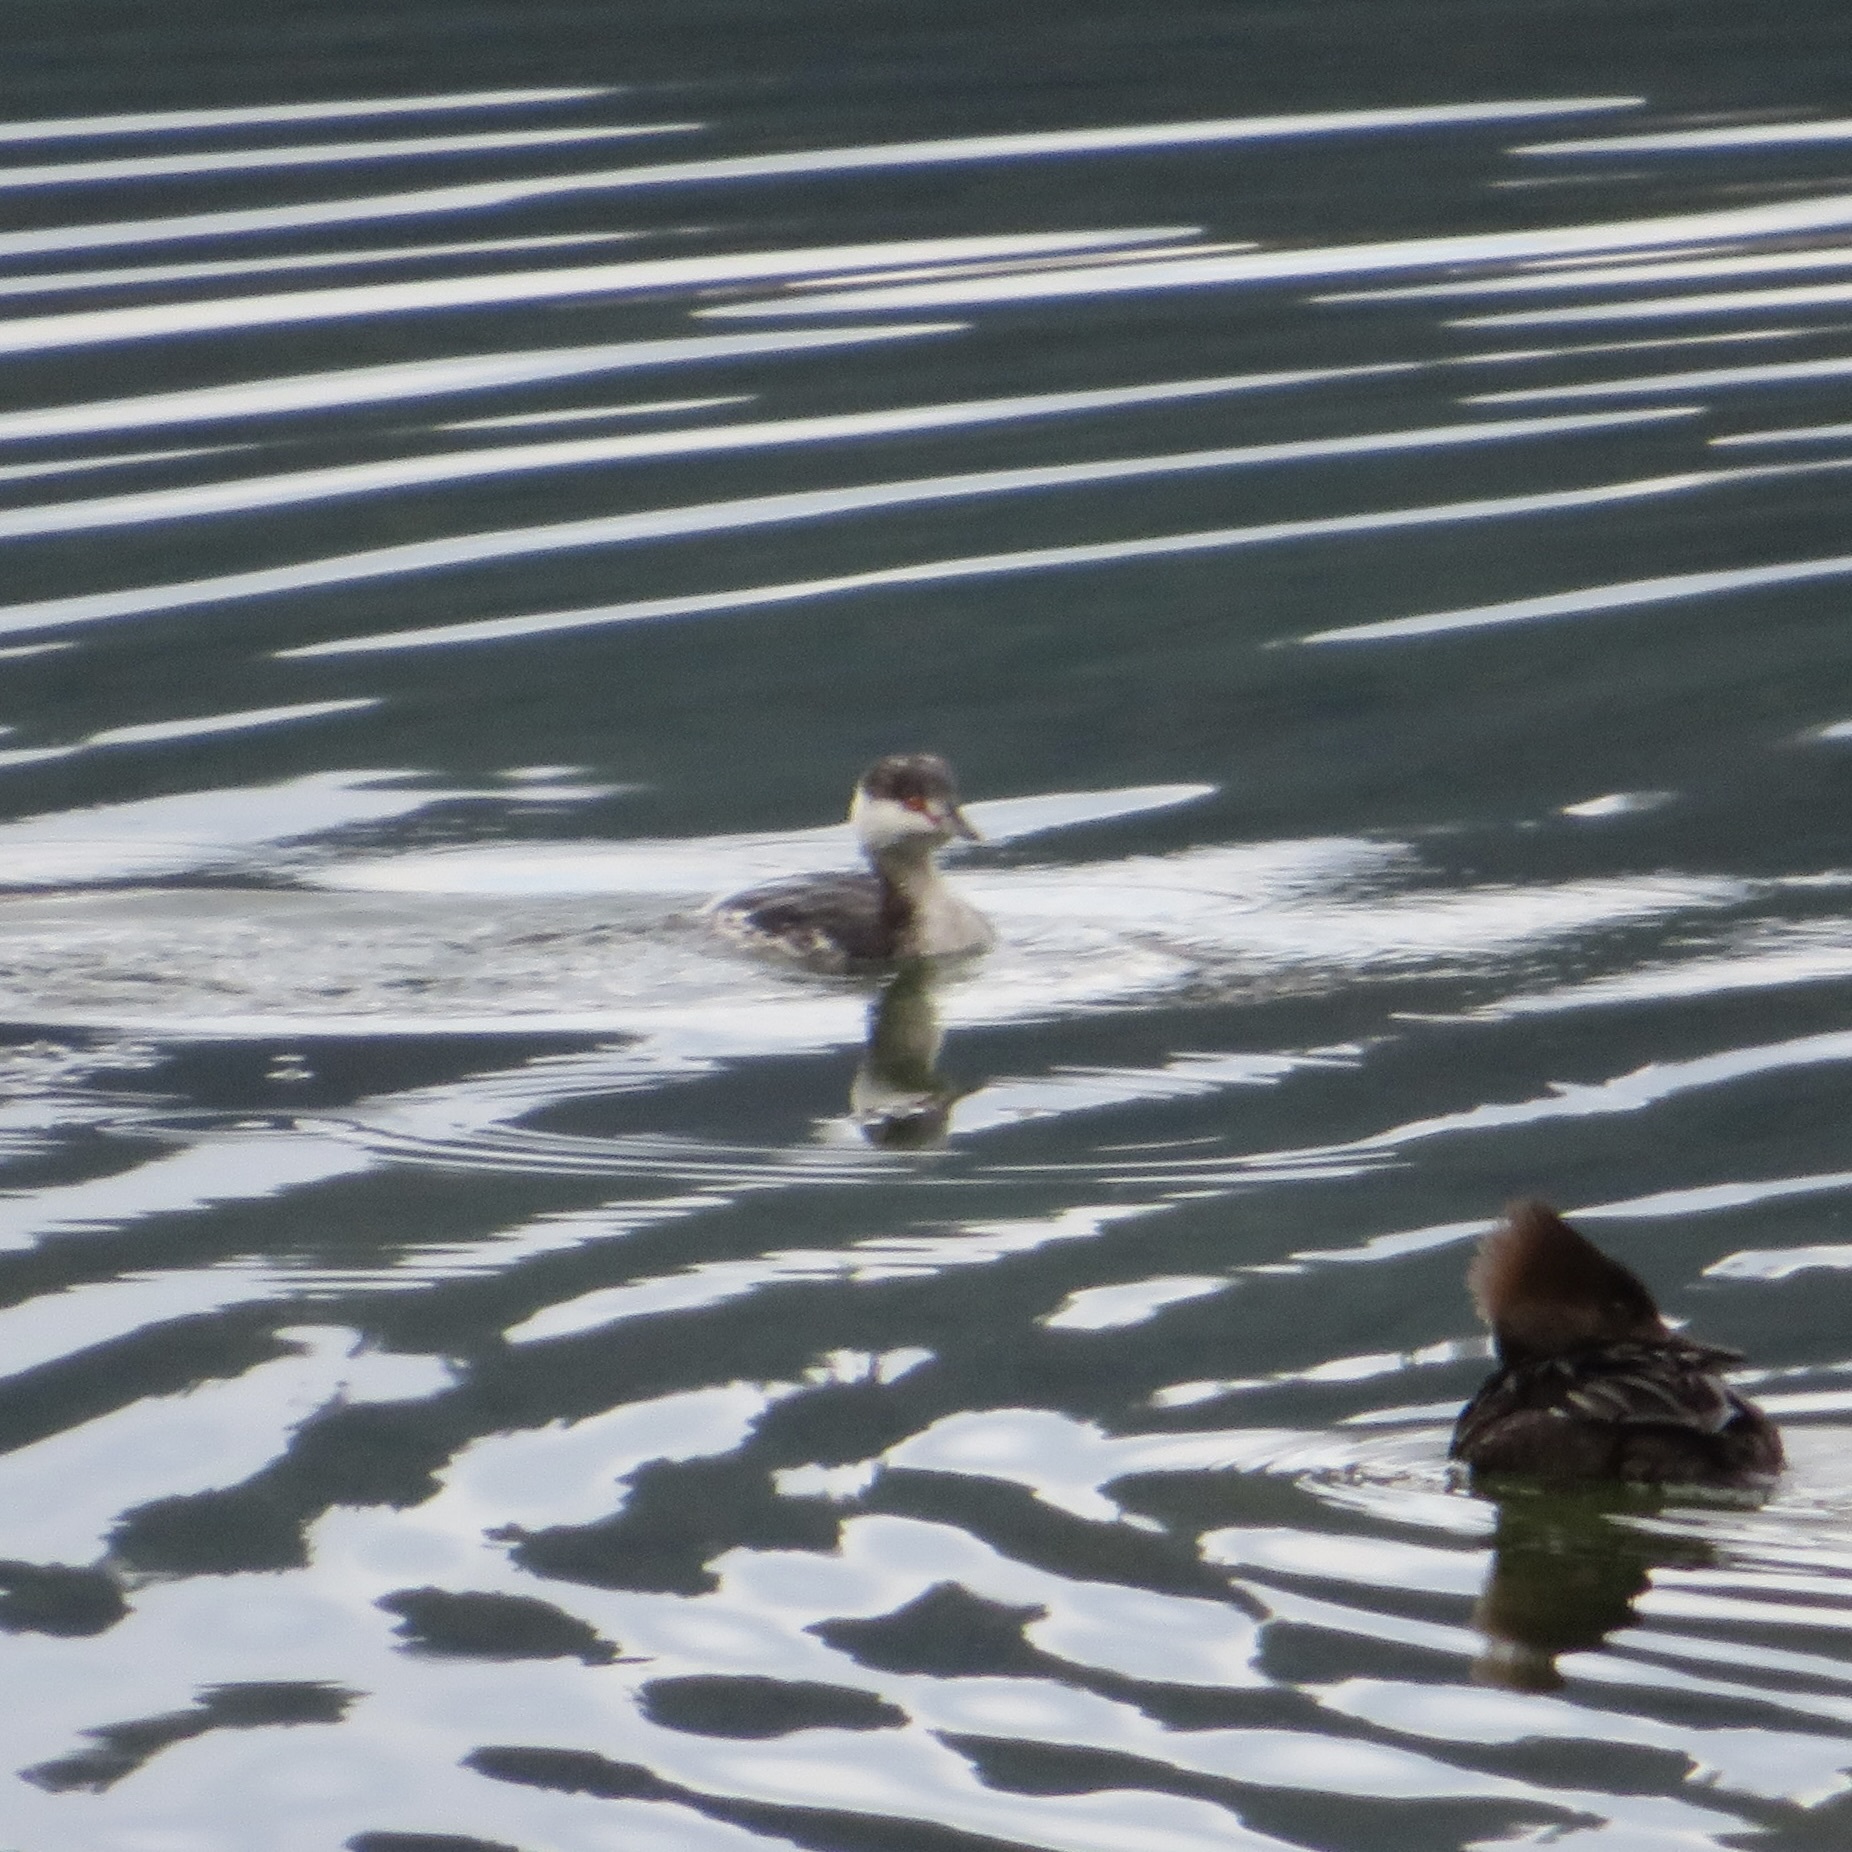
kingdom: Animalia
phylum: Chordata
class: Aves
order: Podicipediformes
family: Podicipedidae
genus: Podiceps
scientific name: Podiceps auritus
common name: Horned grebe
